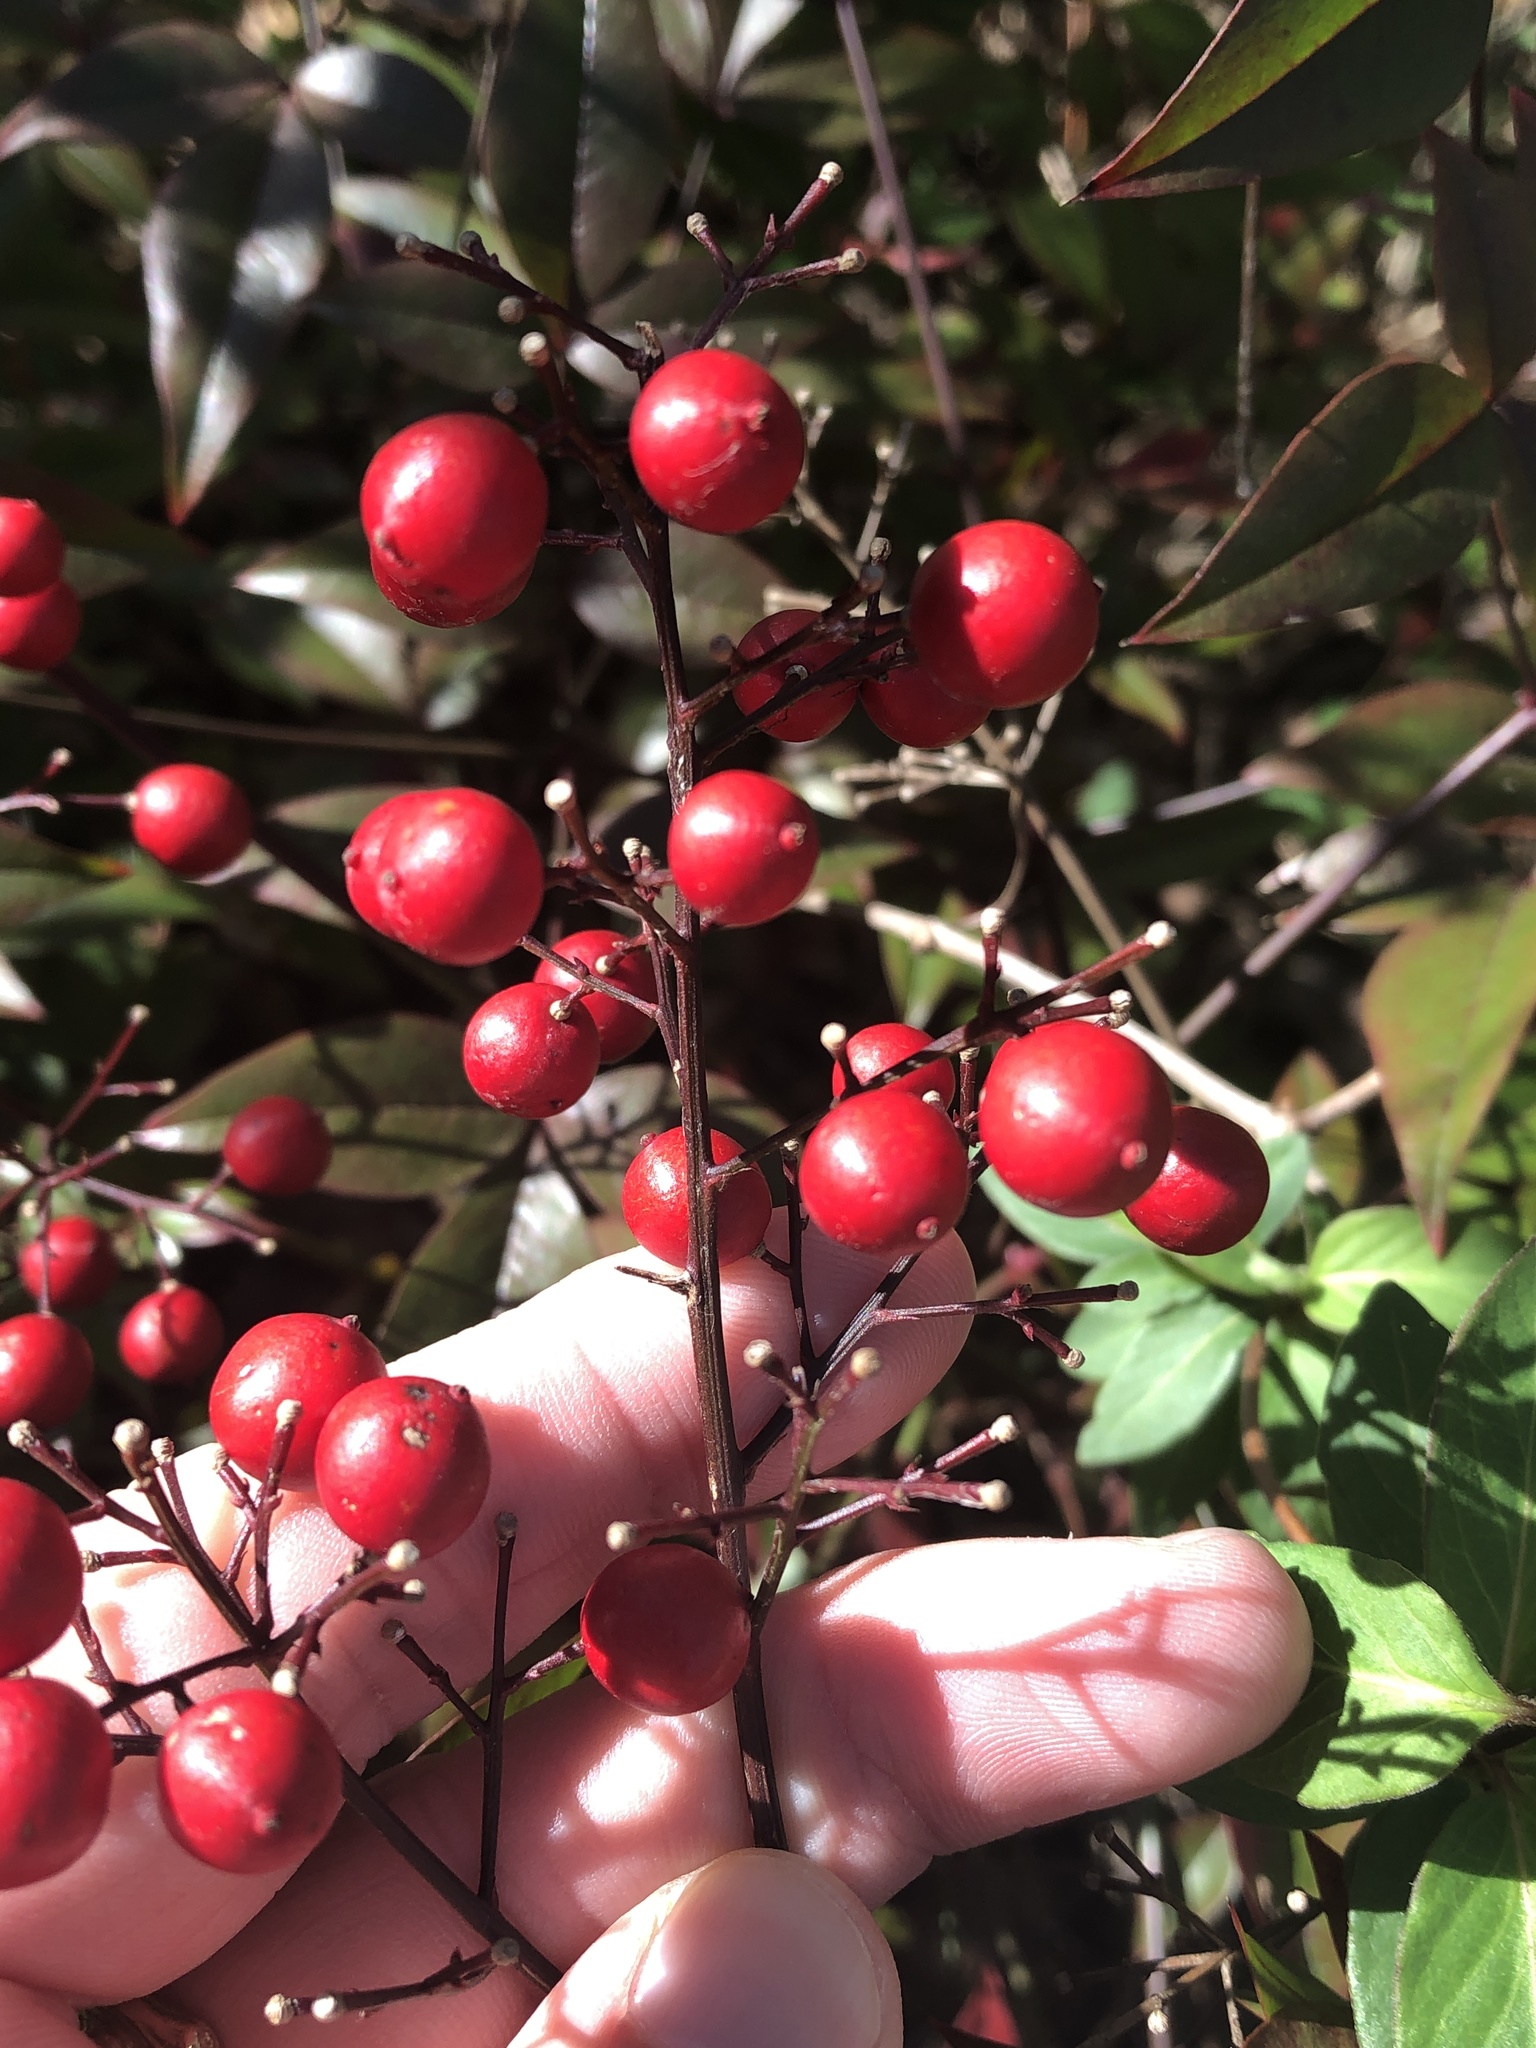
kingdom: Plantae
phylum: Tracheophyta
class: Magnoliopsida
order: Ranunculales
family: Berberidaceae
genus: Nandina
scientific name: Nandina domestica
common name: Sacred bamboo
